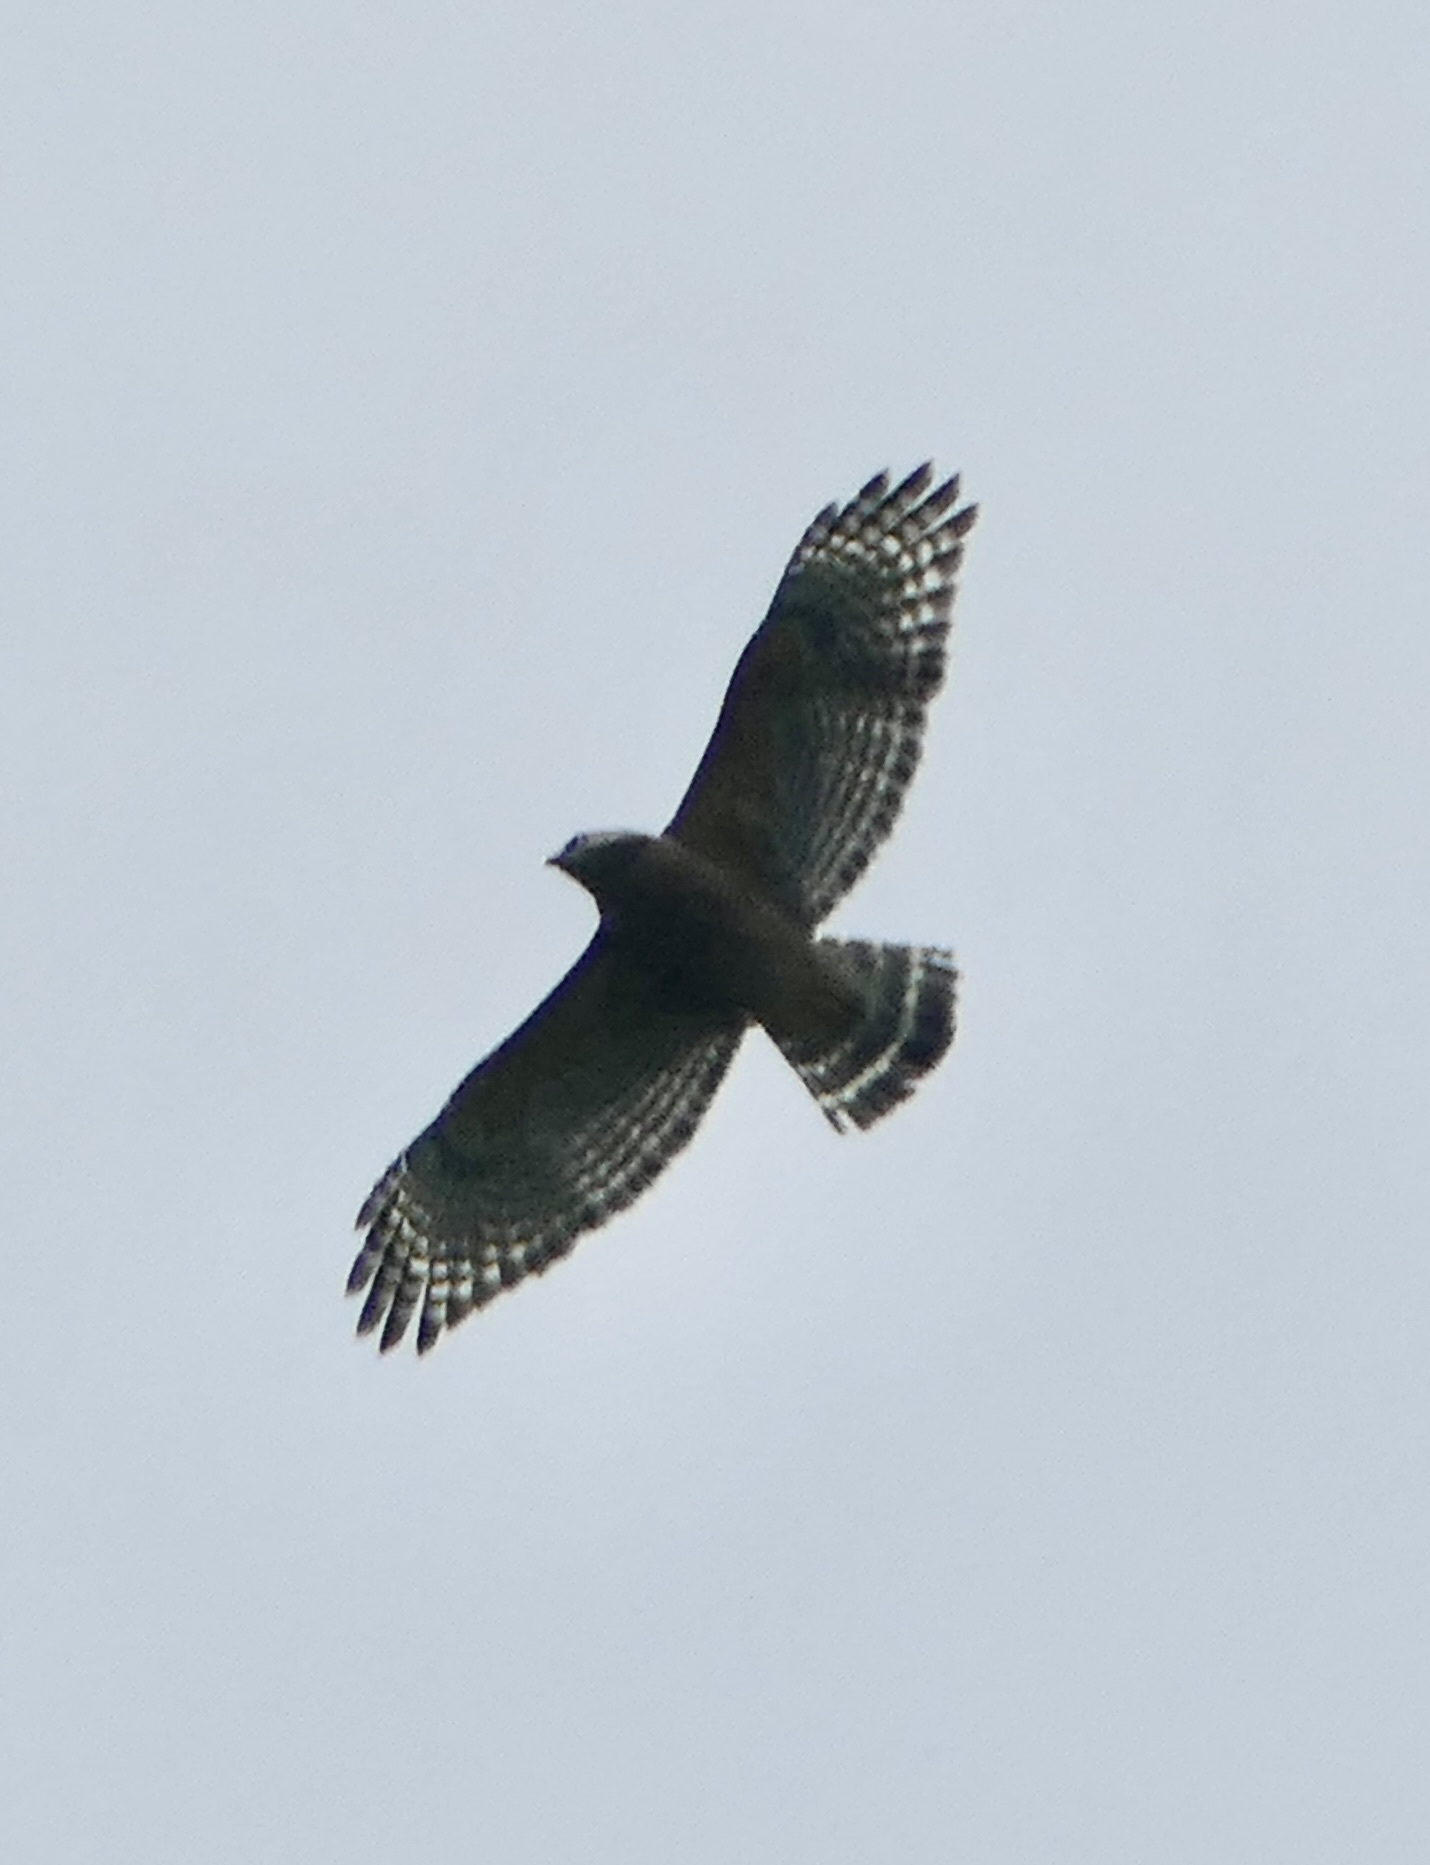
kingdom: Animalia
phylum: Chordata
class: Aves
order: Accipitriformes
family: Accipitridae
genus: Buteo
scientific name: Buteo lineatus
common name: Red-shouldered hawk
